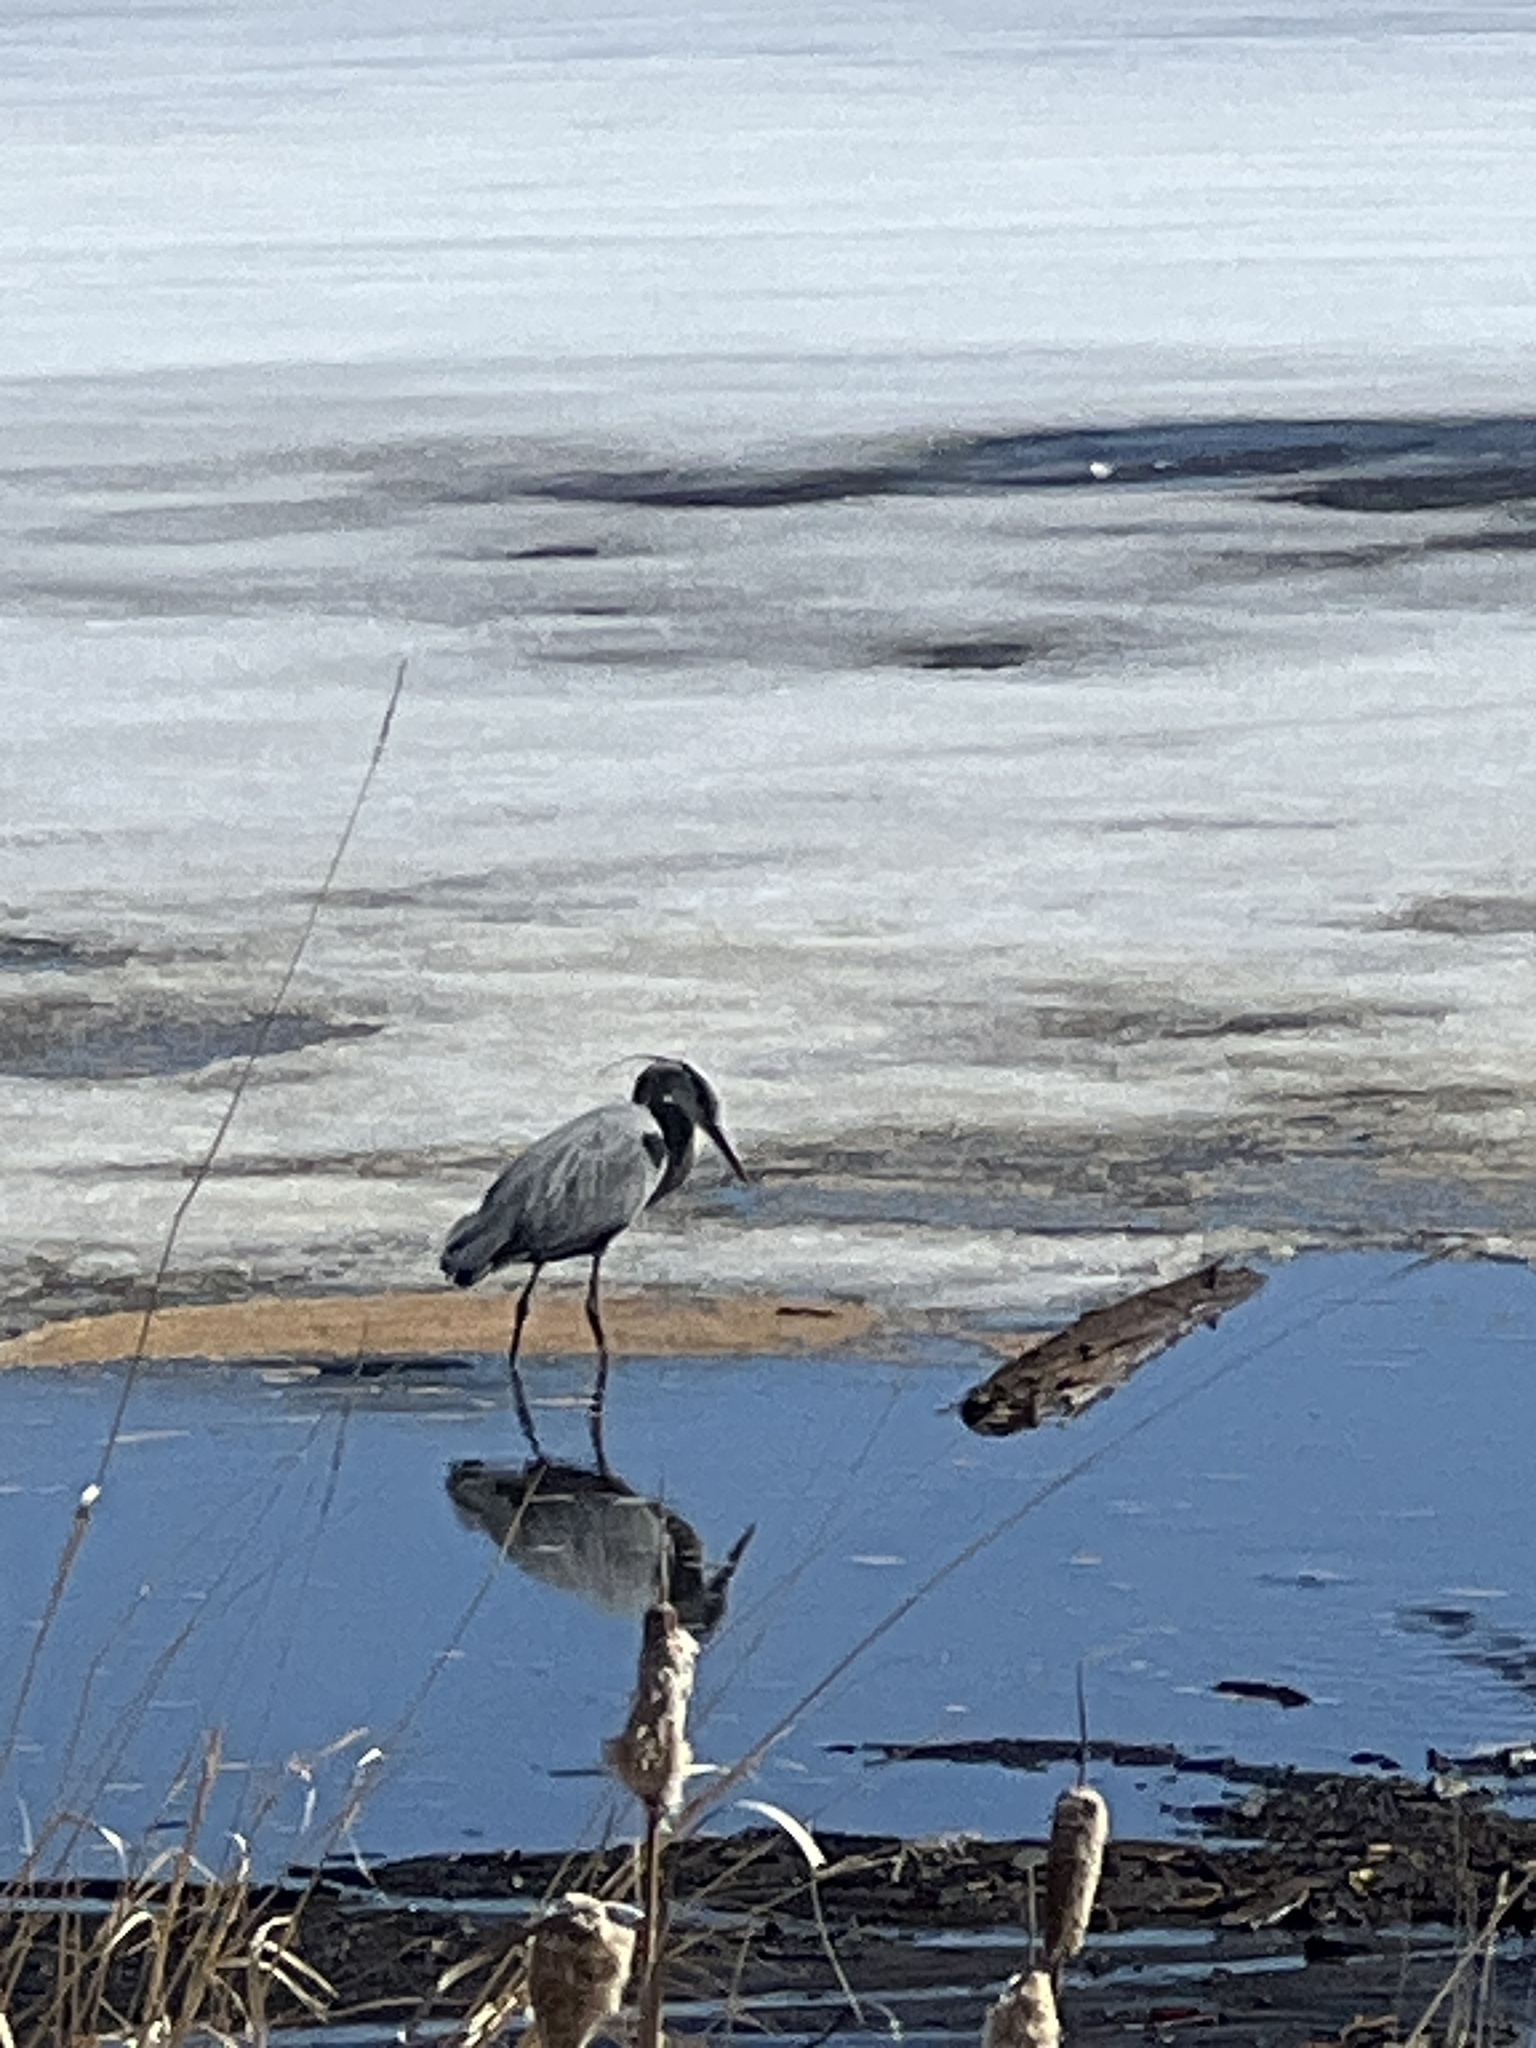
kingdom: Animalia
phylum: Chordata
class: Aves
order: Pelecaniformes
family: Ardeidae
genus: Ardea
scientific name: Ardea herodias
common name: Great blue heron
